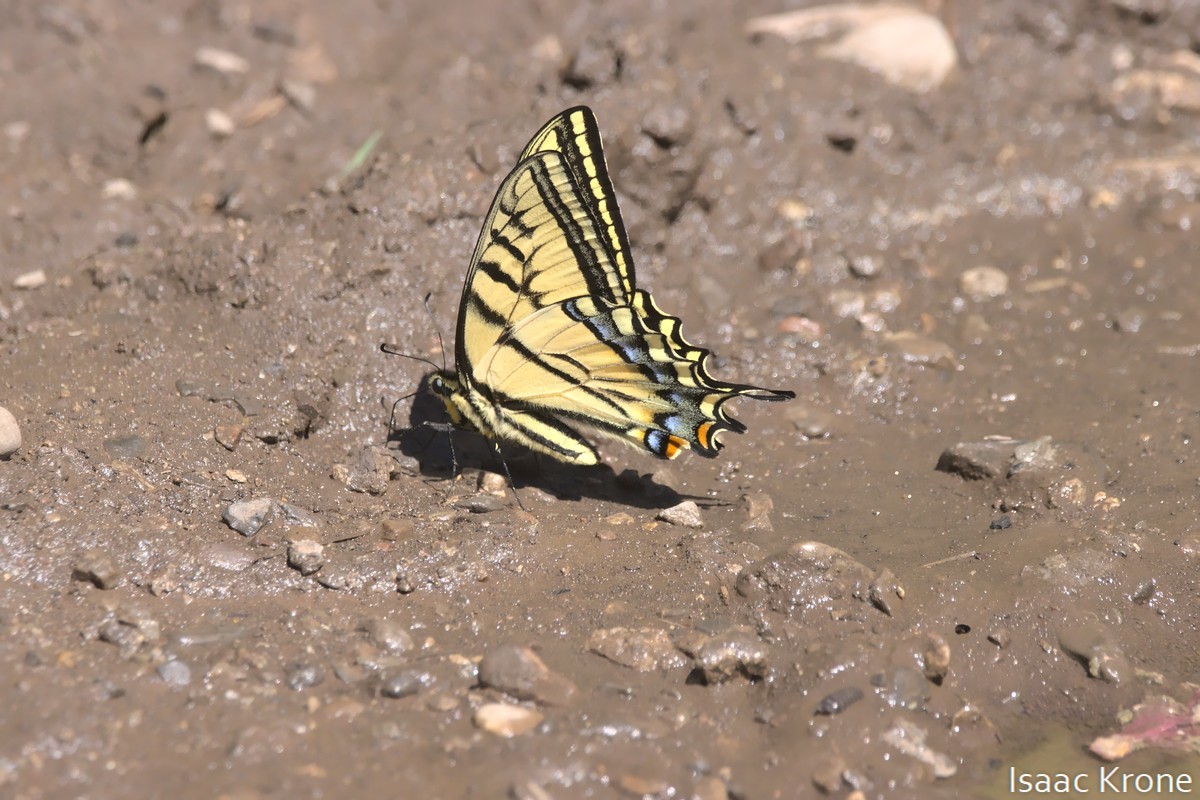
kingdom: Animalia
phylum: Arthropoda
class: Insecta
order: Lepidoptera
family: Papilionidae
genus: Papilio
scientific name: Papilio multicaudata
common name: Two-tailed tiger swallowtail
